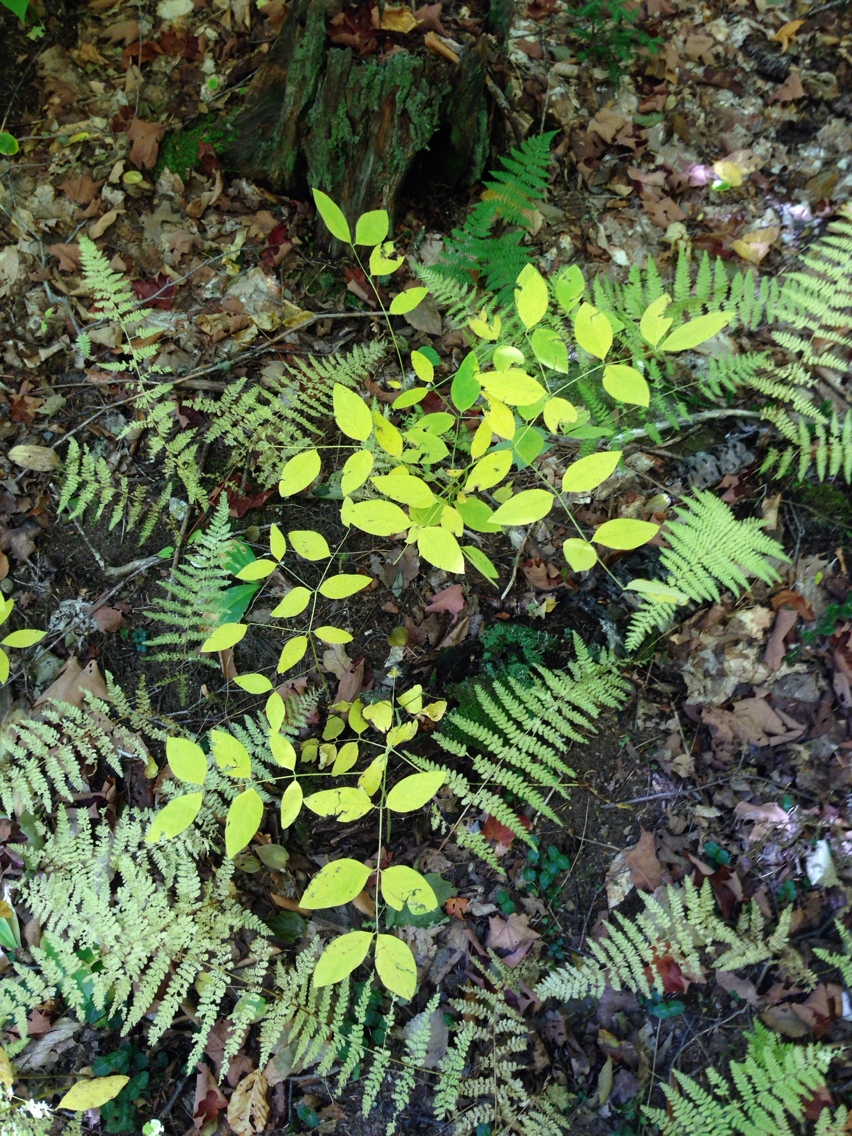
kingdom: Plantae
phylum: Tracheophyta
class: Magnoliopsida
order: Gentianales
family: Apocynaceae
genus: Apocynum
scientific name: Apocynum androsaemifolium
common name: Spreading dogbane
